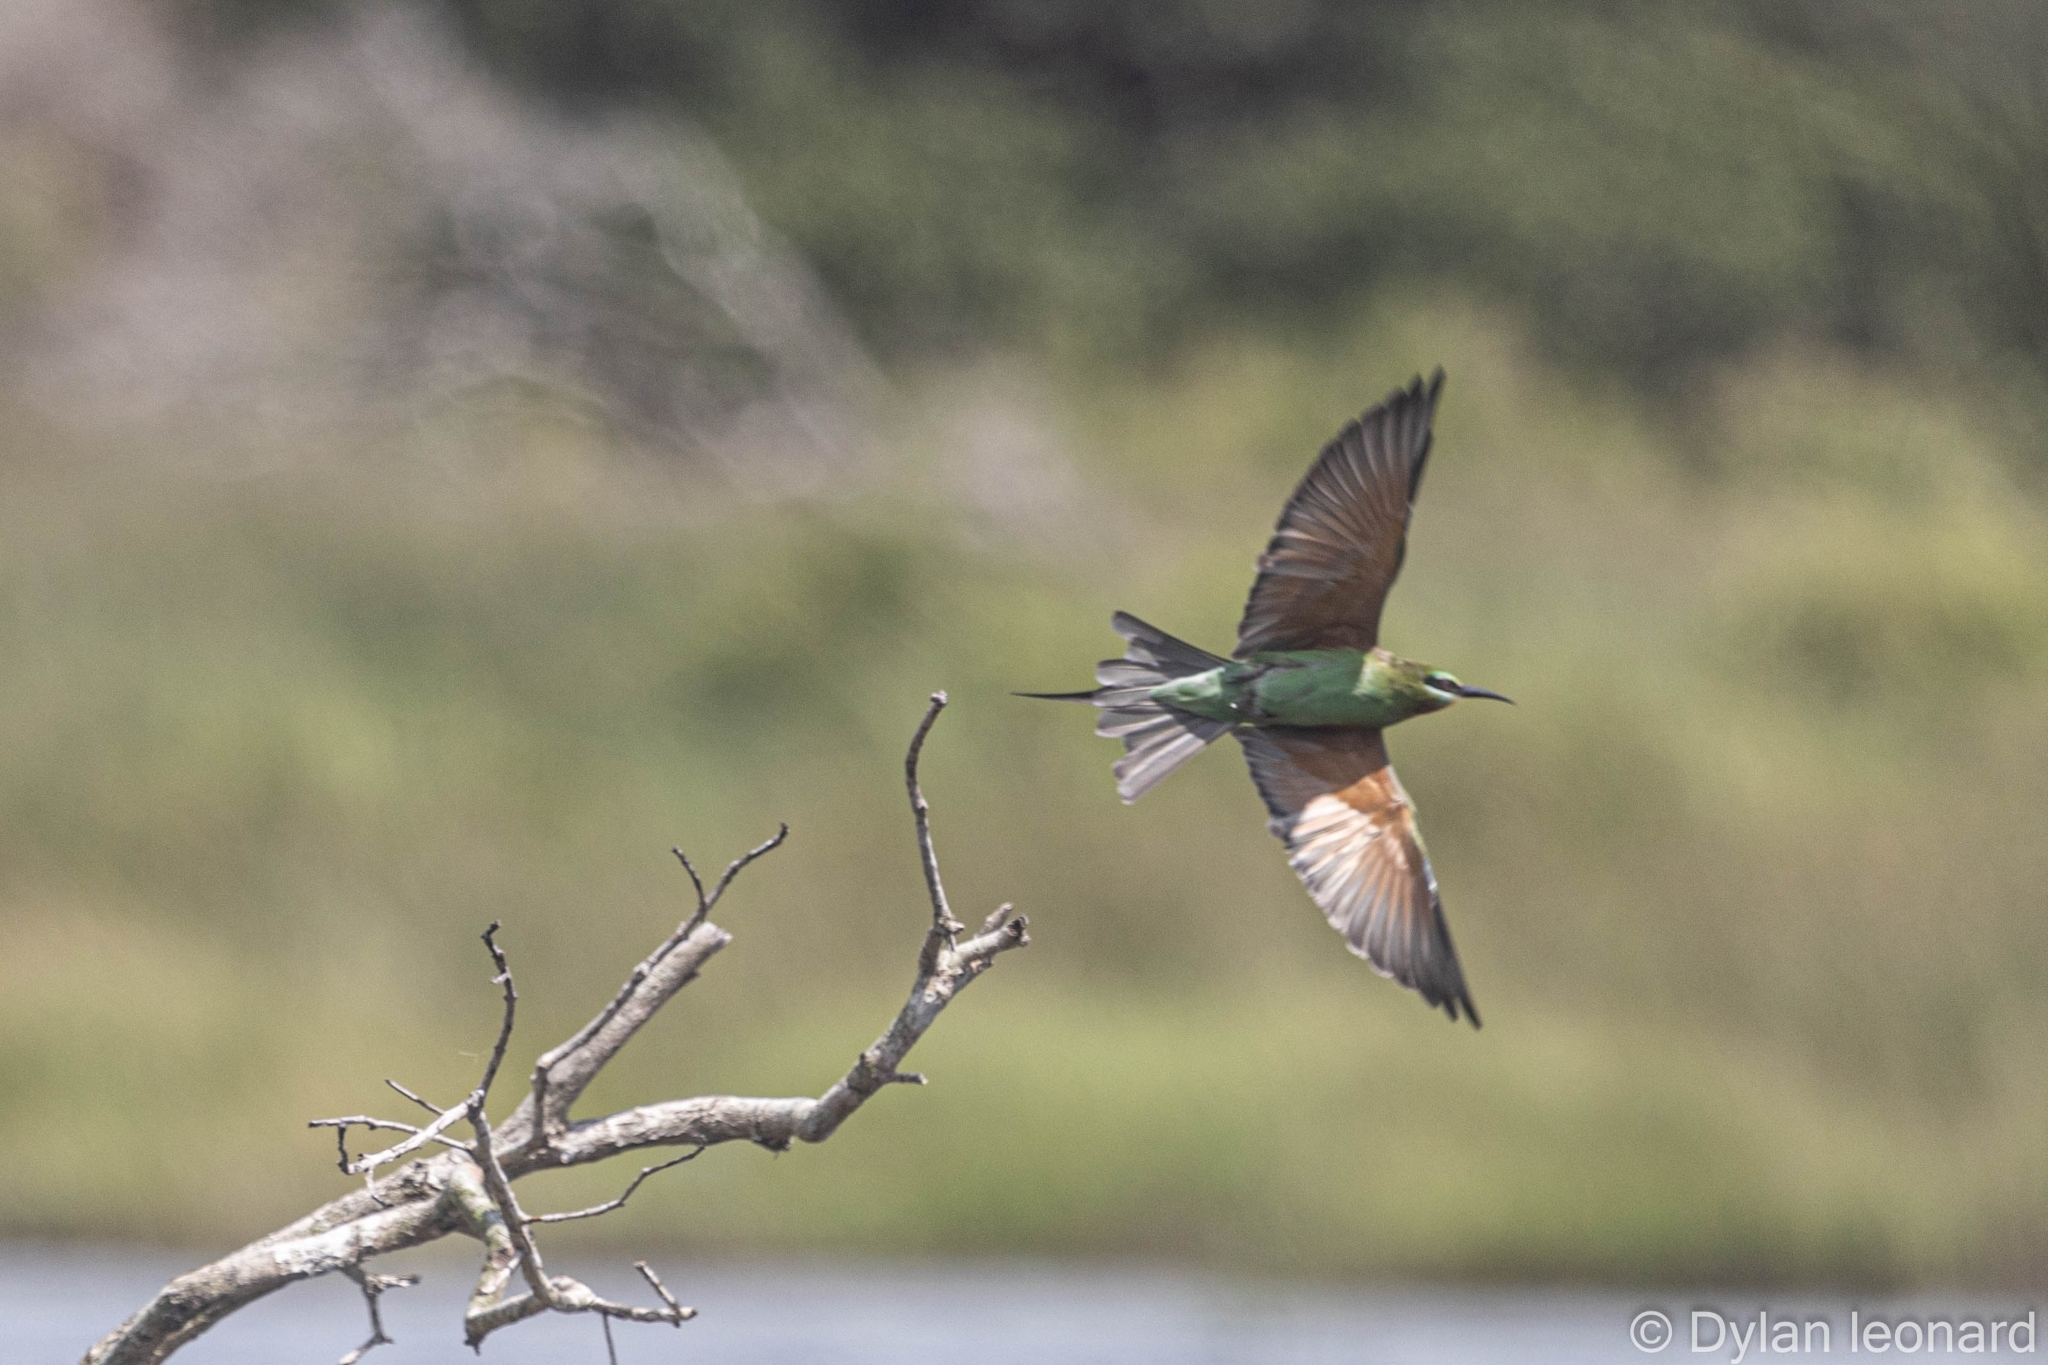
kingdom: Animalia
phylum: Chordata
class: Aves
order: Coraciiformes
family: Meropidae
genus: Merops
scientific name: Merops persicus
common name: Blue-cheeked bee-eater
